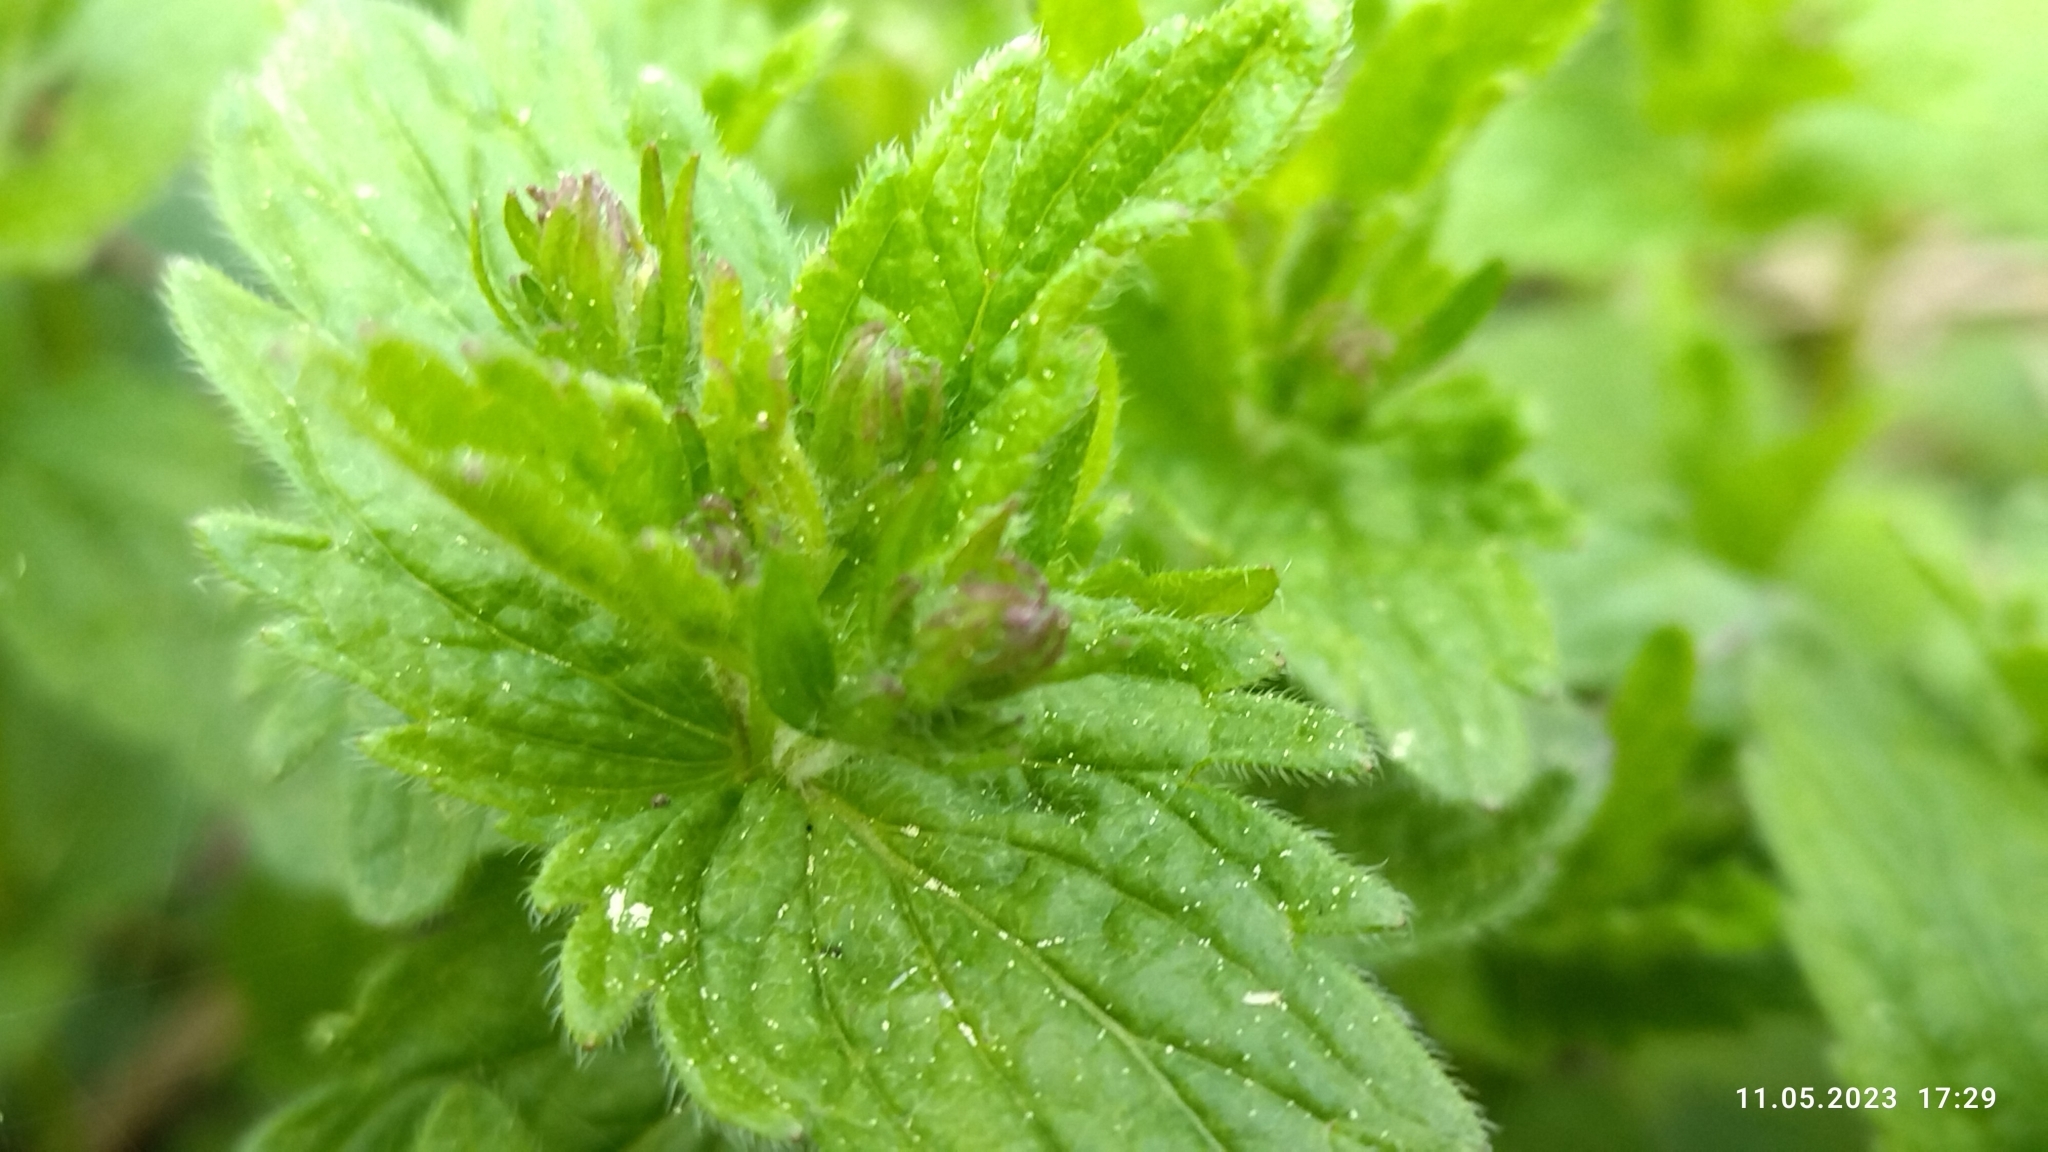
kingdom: Plantae
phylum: Tracheophyta
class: Magnoliopsida
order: Lamiales
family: Plantaginaceae
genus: Veronica
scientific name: Veronica chamaedrys
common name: Germander speedwell
